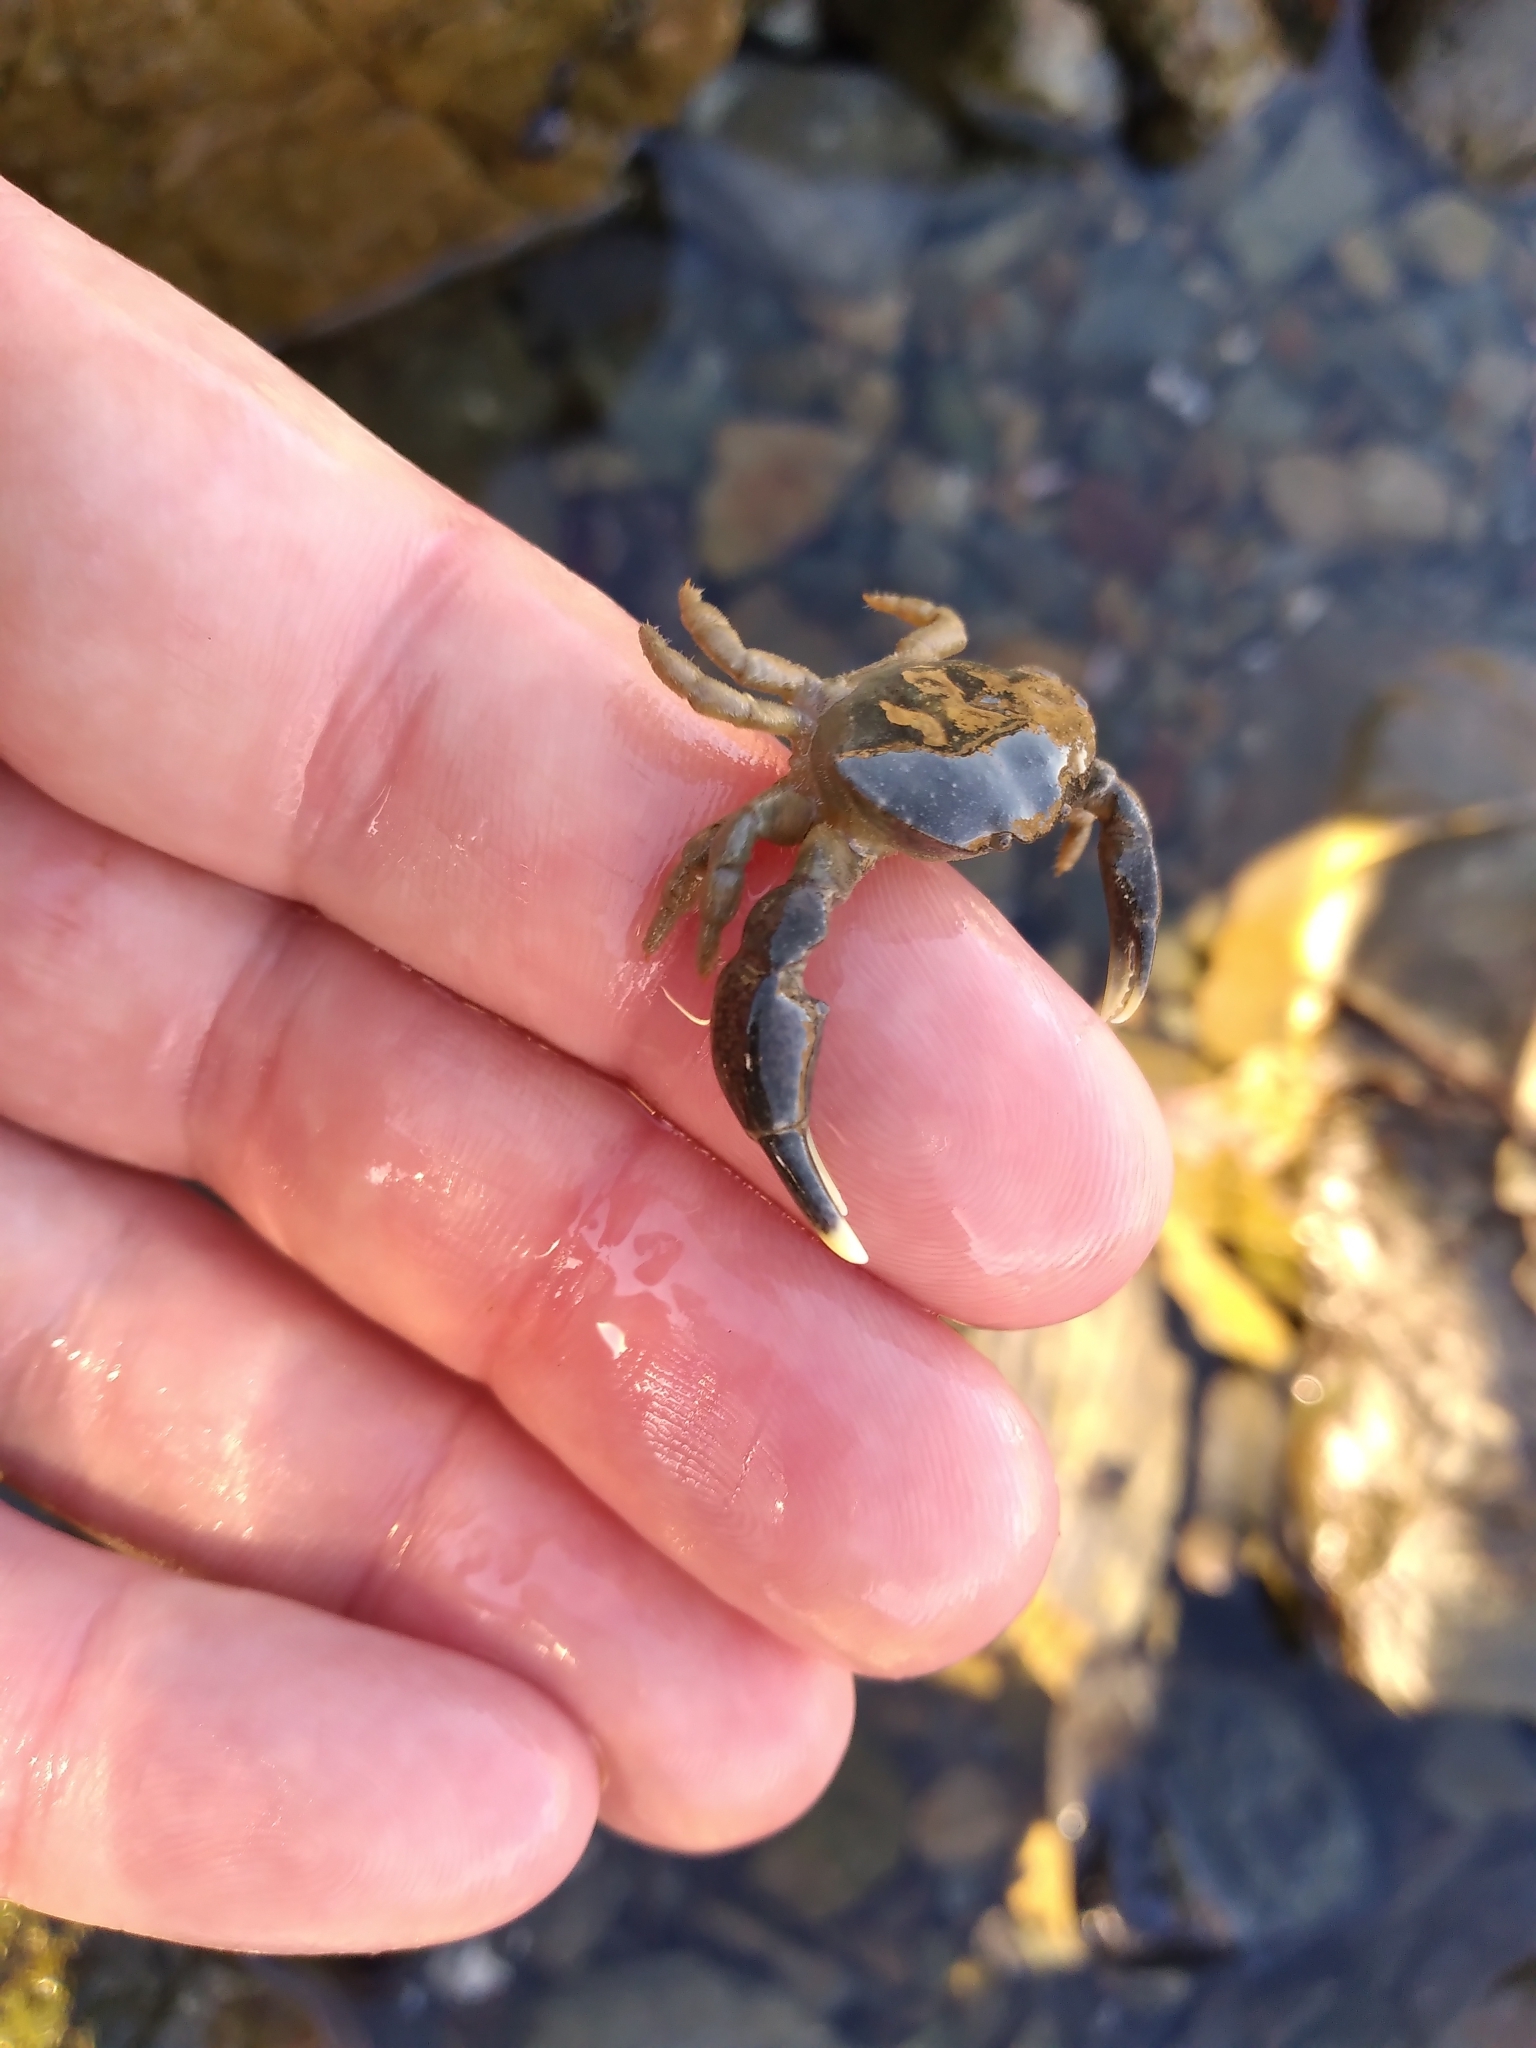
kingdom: Animalia
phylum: Arthropoda
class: Malacostraca
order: Decapoda
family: Heteroziidae
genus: Heterozius
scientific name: Heterozius rotundifrons
